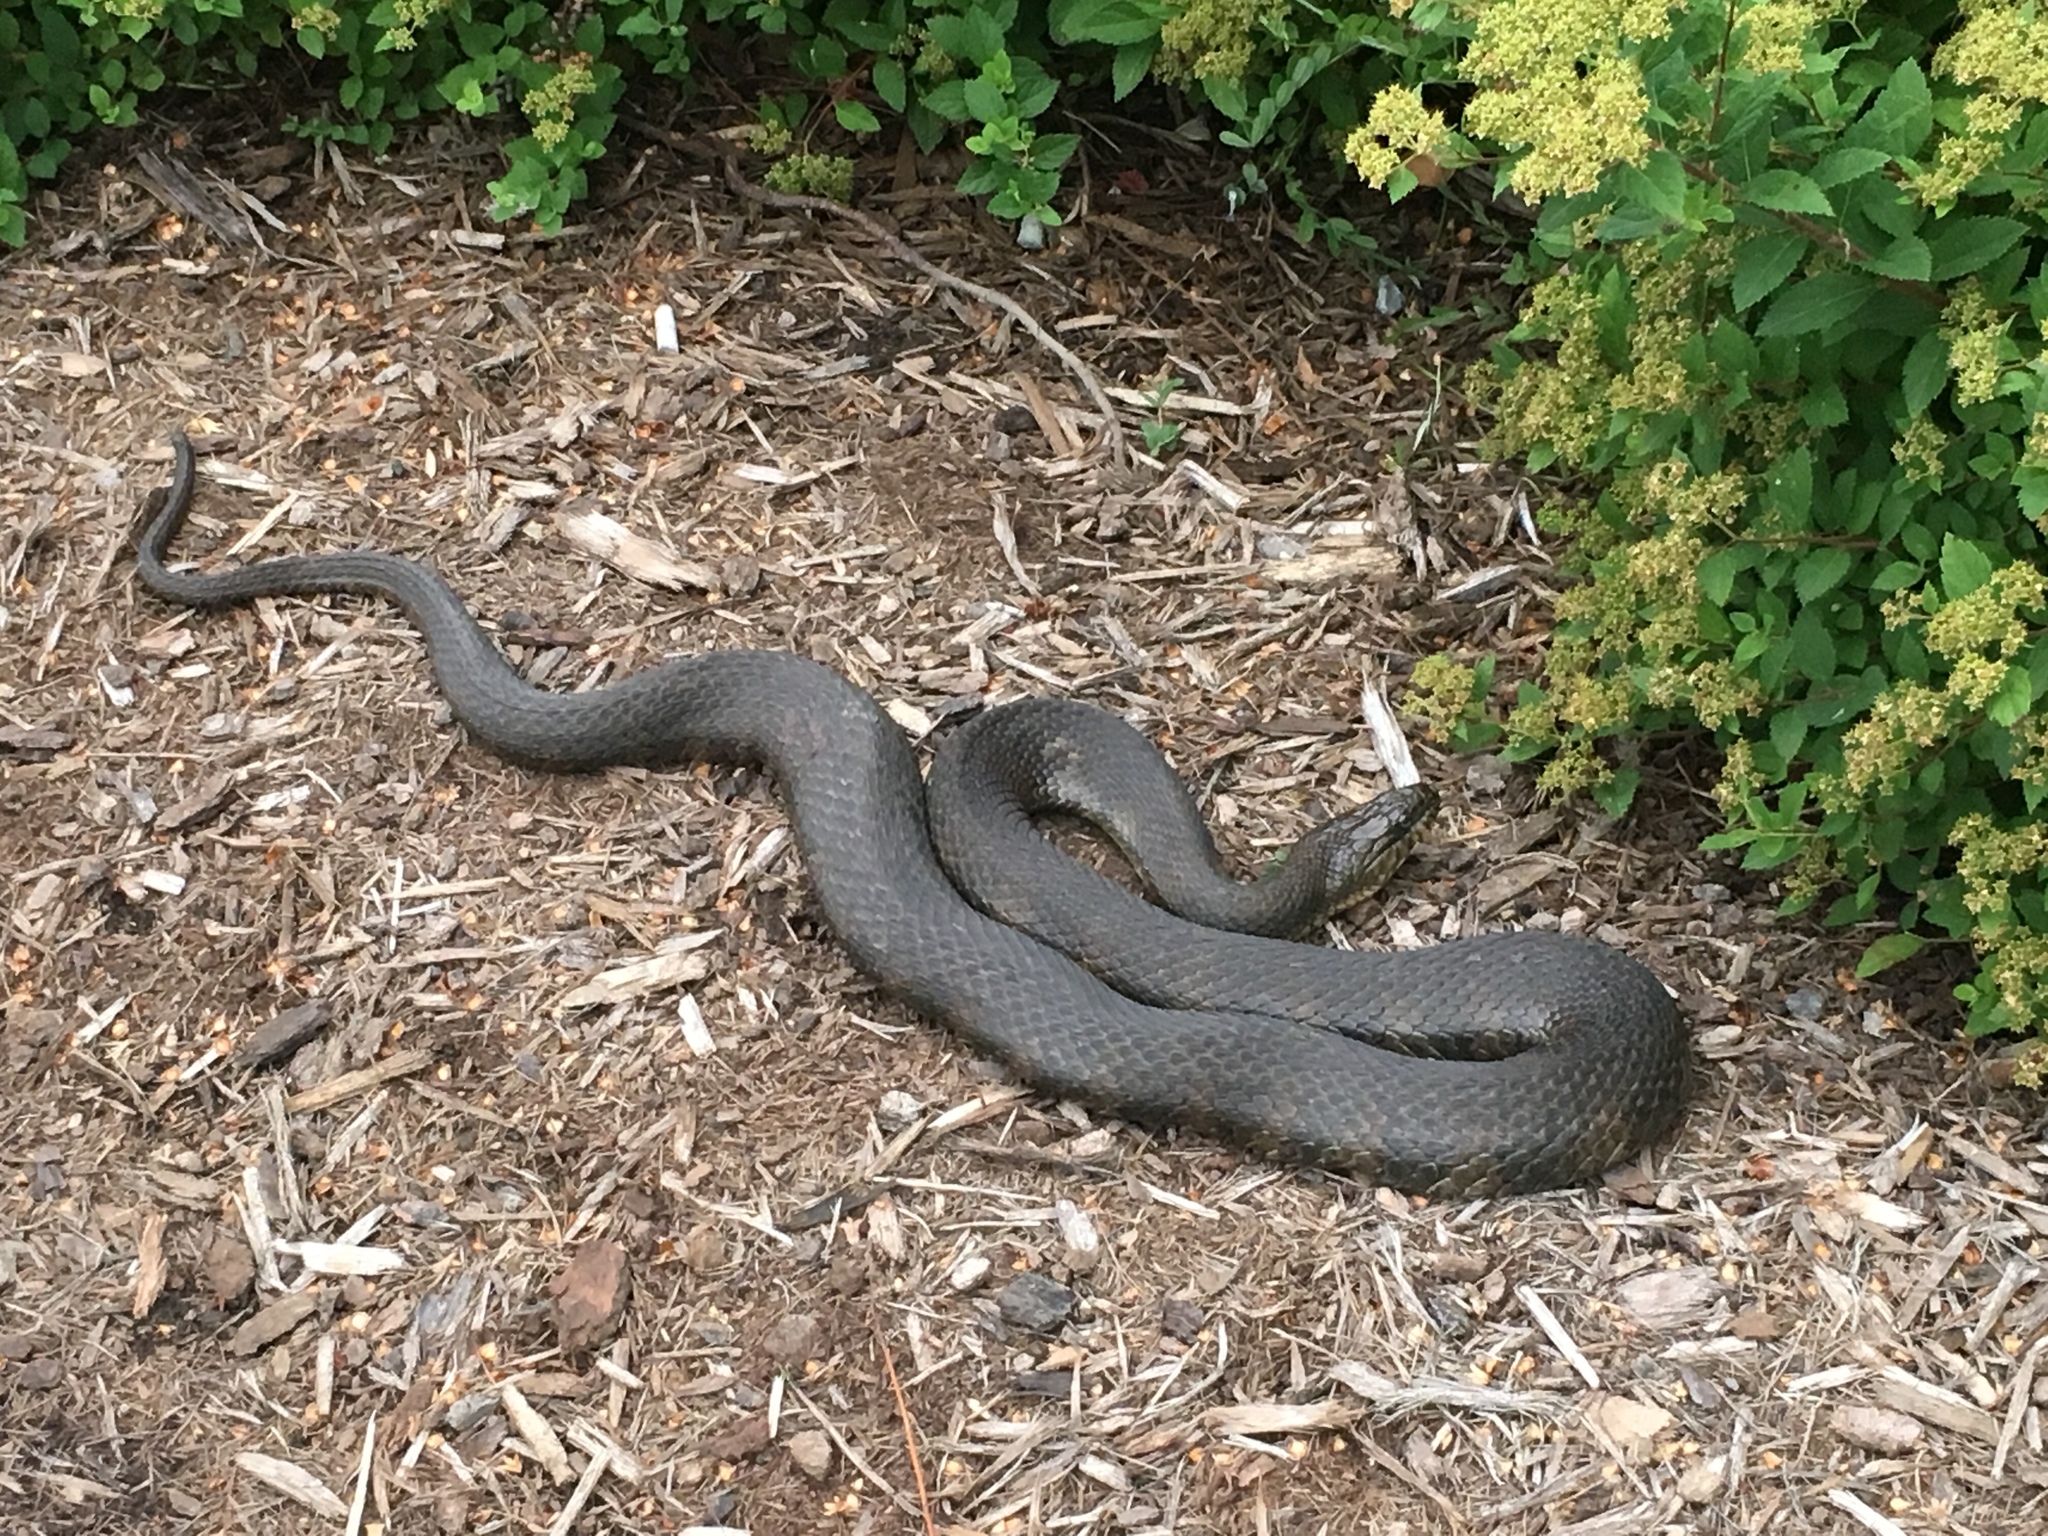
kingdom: Animalia
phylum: Chordata
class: Squamata
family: Colubridae
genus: Nerodia
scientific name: Nerodia sipedon
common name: Northern water snake
